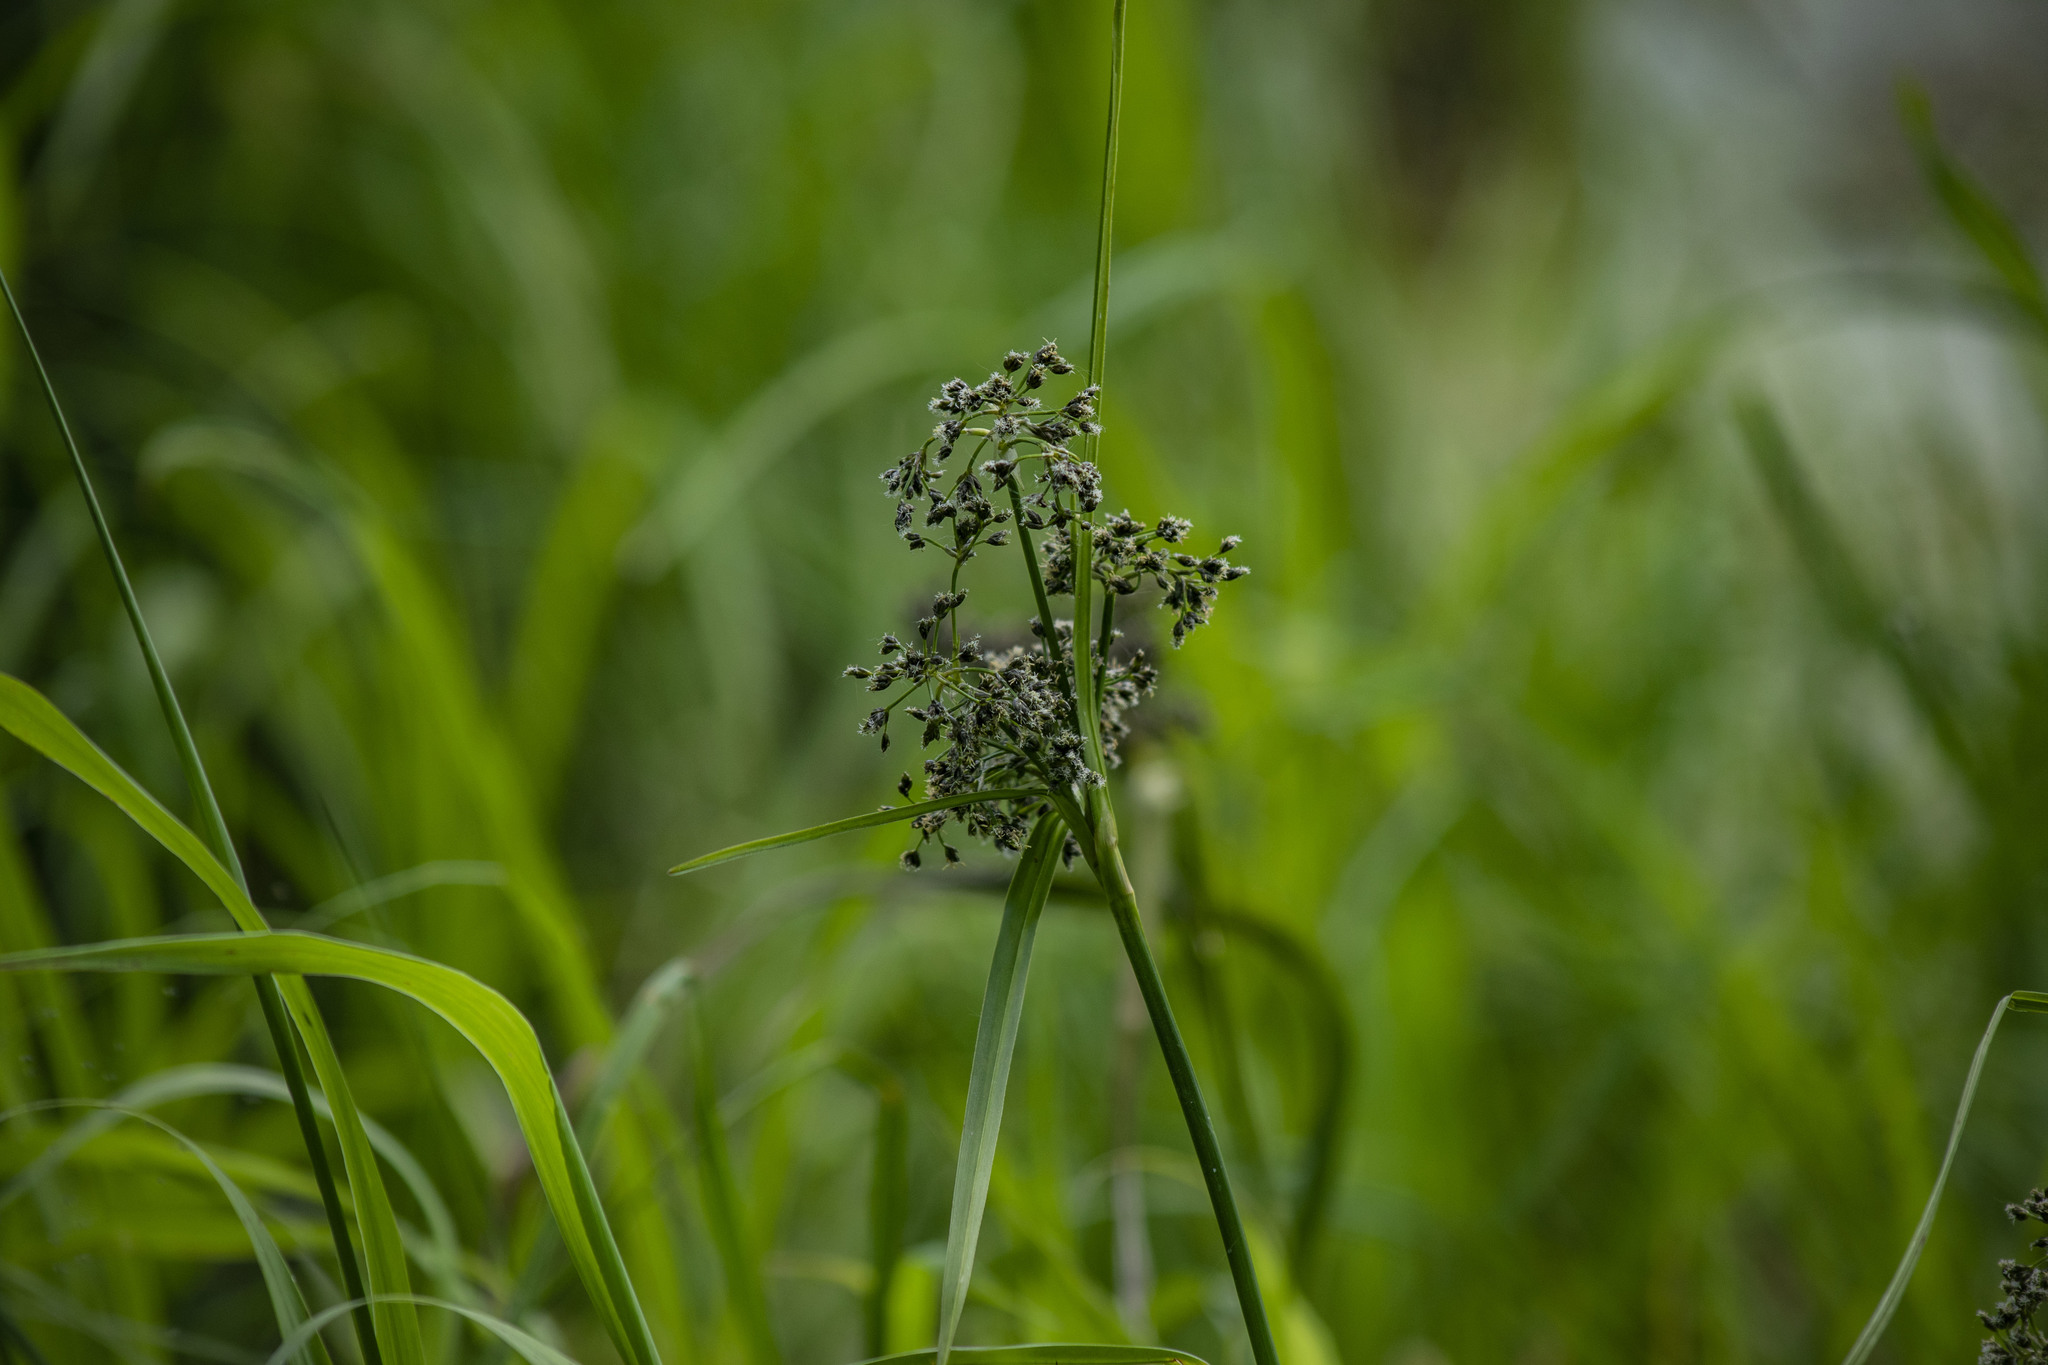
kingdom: Plantae
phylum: Tracheophyta
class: Liliopsida
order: Poales
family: Cyperaceae
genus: Scirpus
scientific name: Scirpus sylvaticus
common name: Wood club-rush
